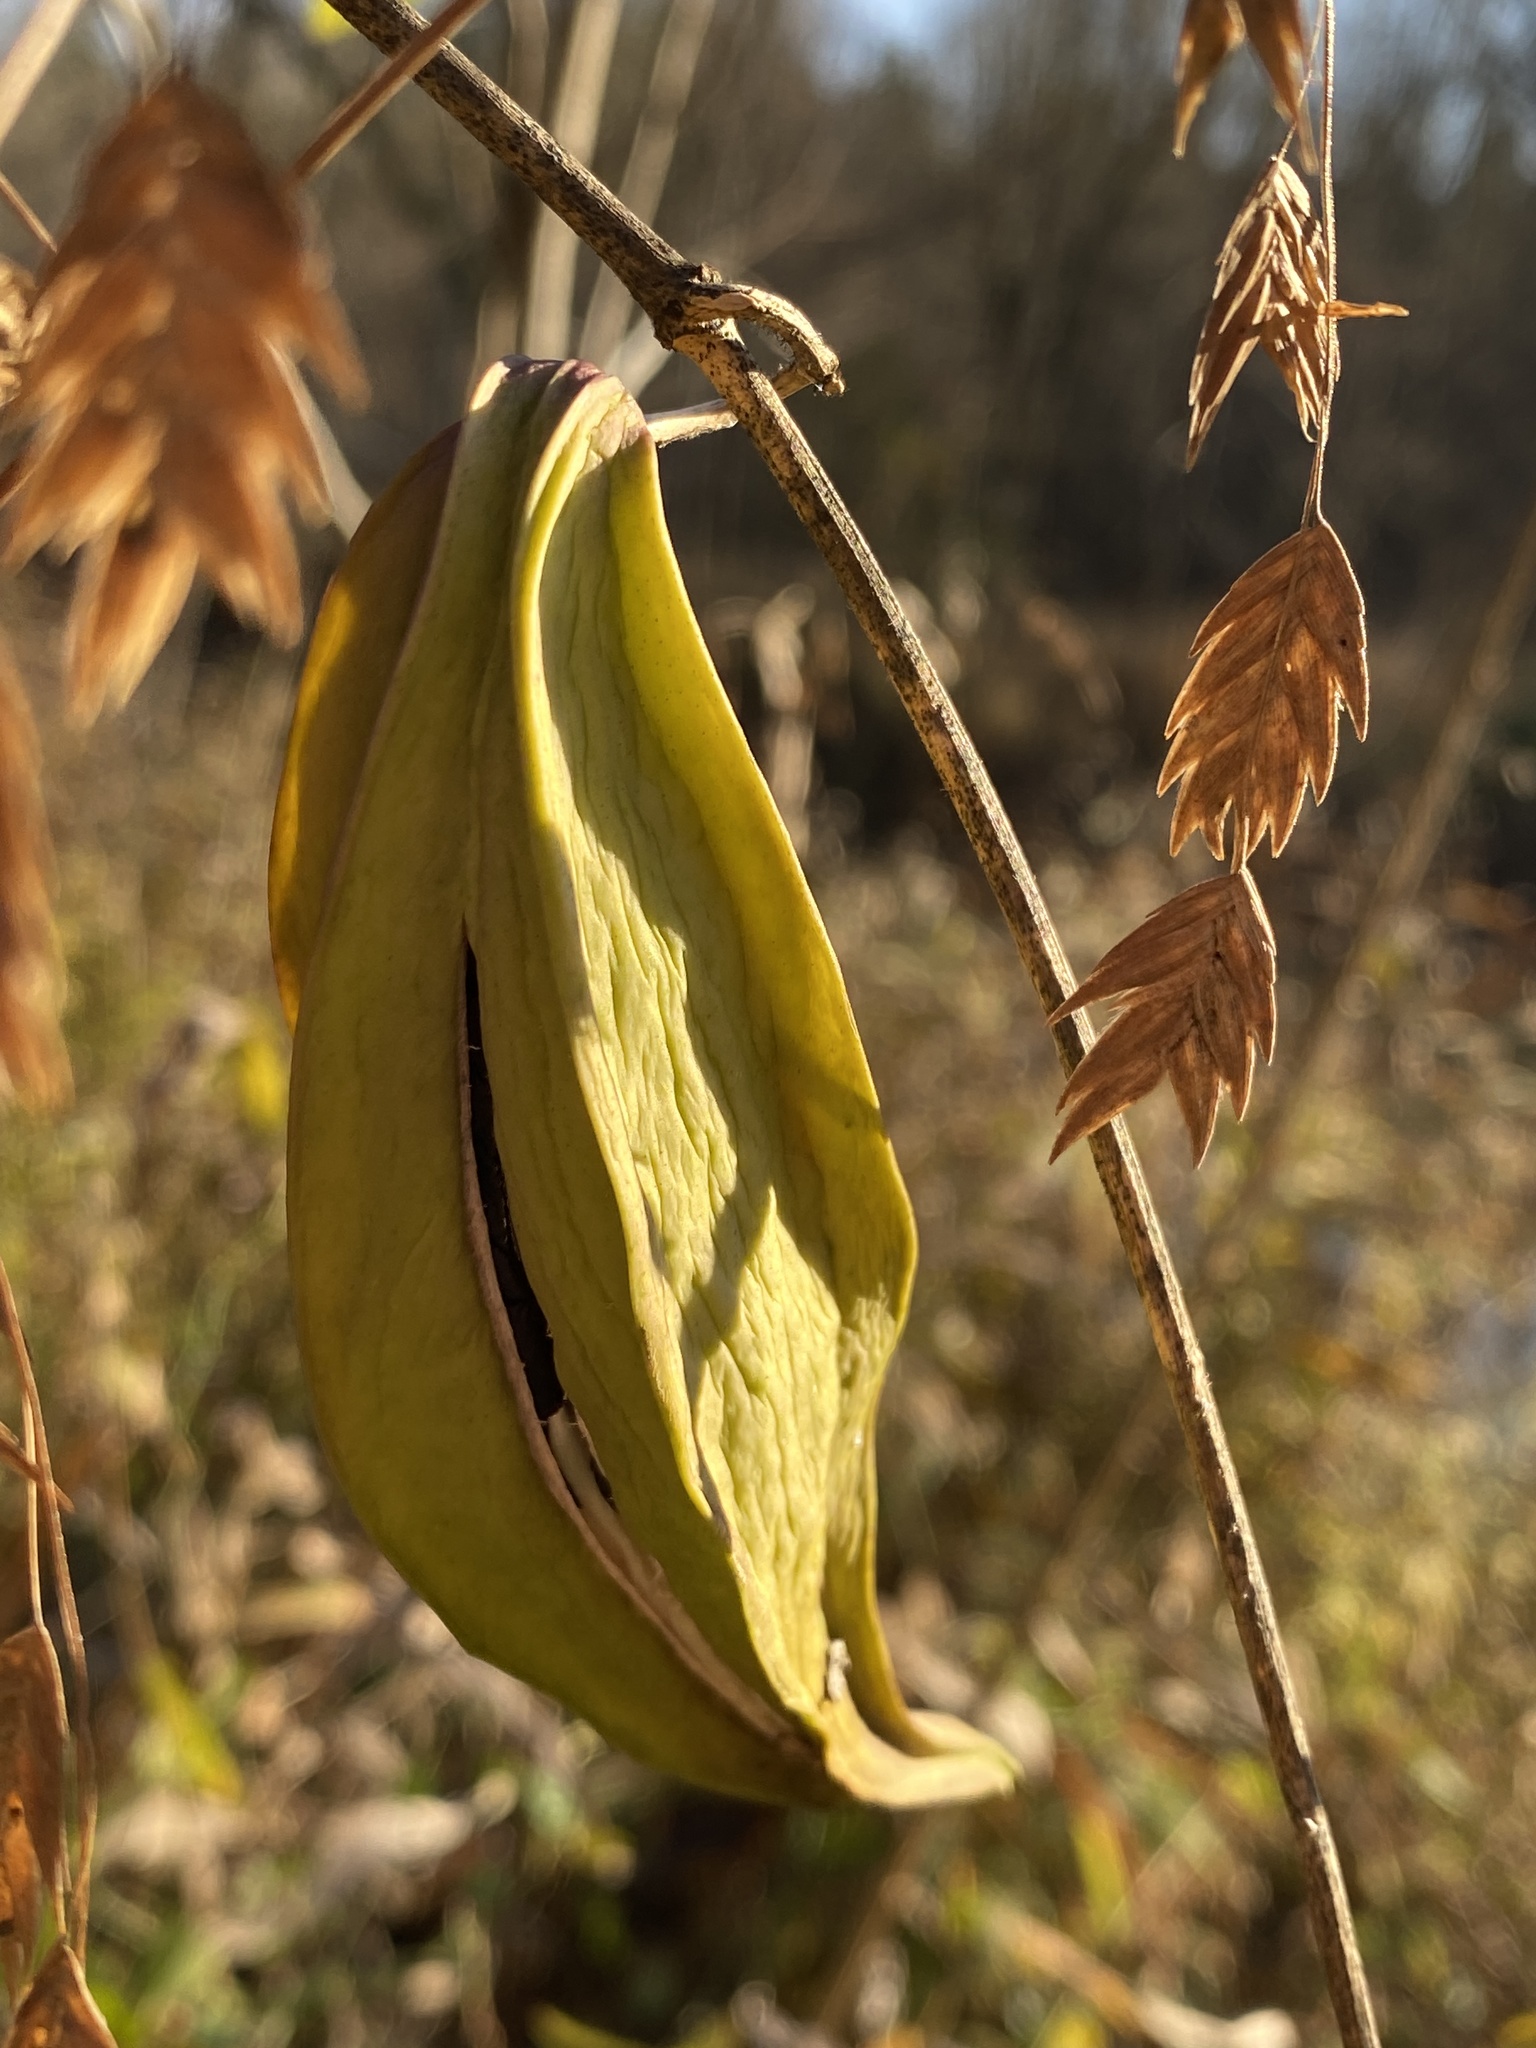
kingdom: Plantae
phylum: Tracheophyta
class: Magnoliopsida
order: Gentianales
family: Apocynaceae
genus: Gonolobus
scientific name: Gonolobus suberosus
